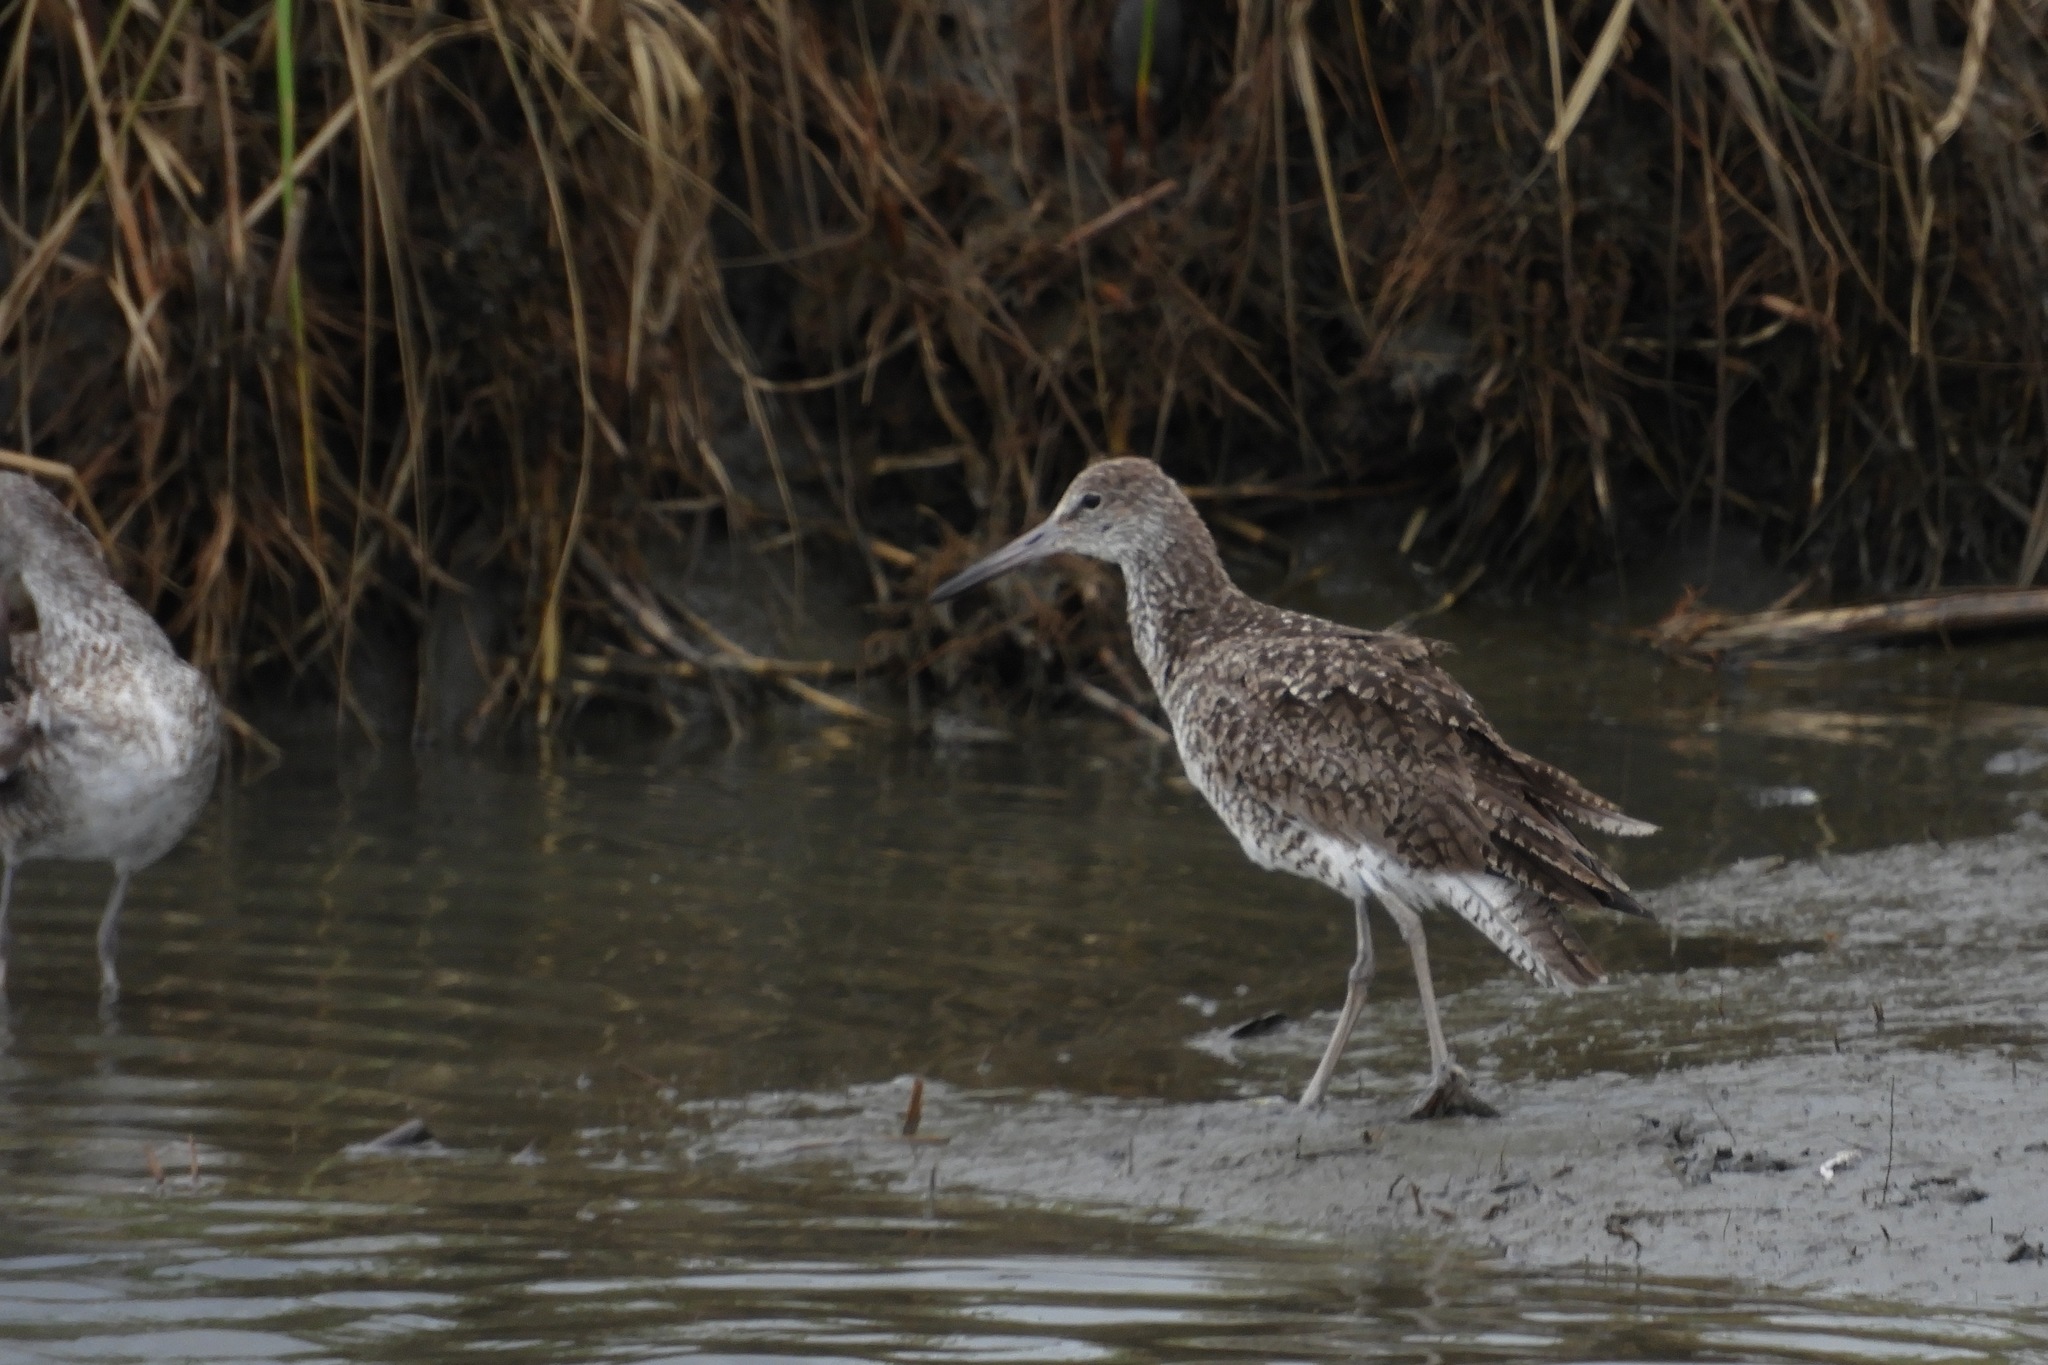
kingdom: Animalia
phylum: Chordata
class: Aves
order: Charadriiformes
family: Scolopacidae
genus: Tringa
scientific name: Tringa semipalmata
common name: Willet
